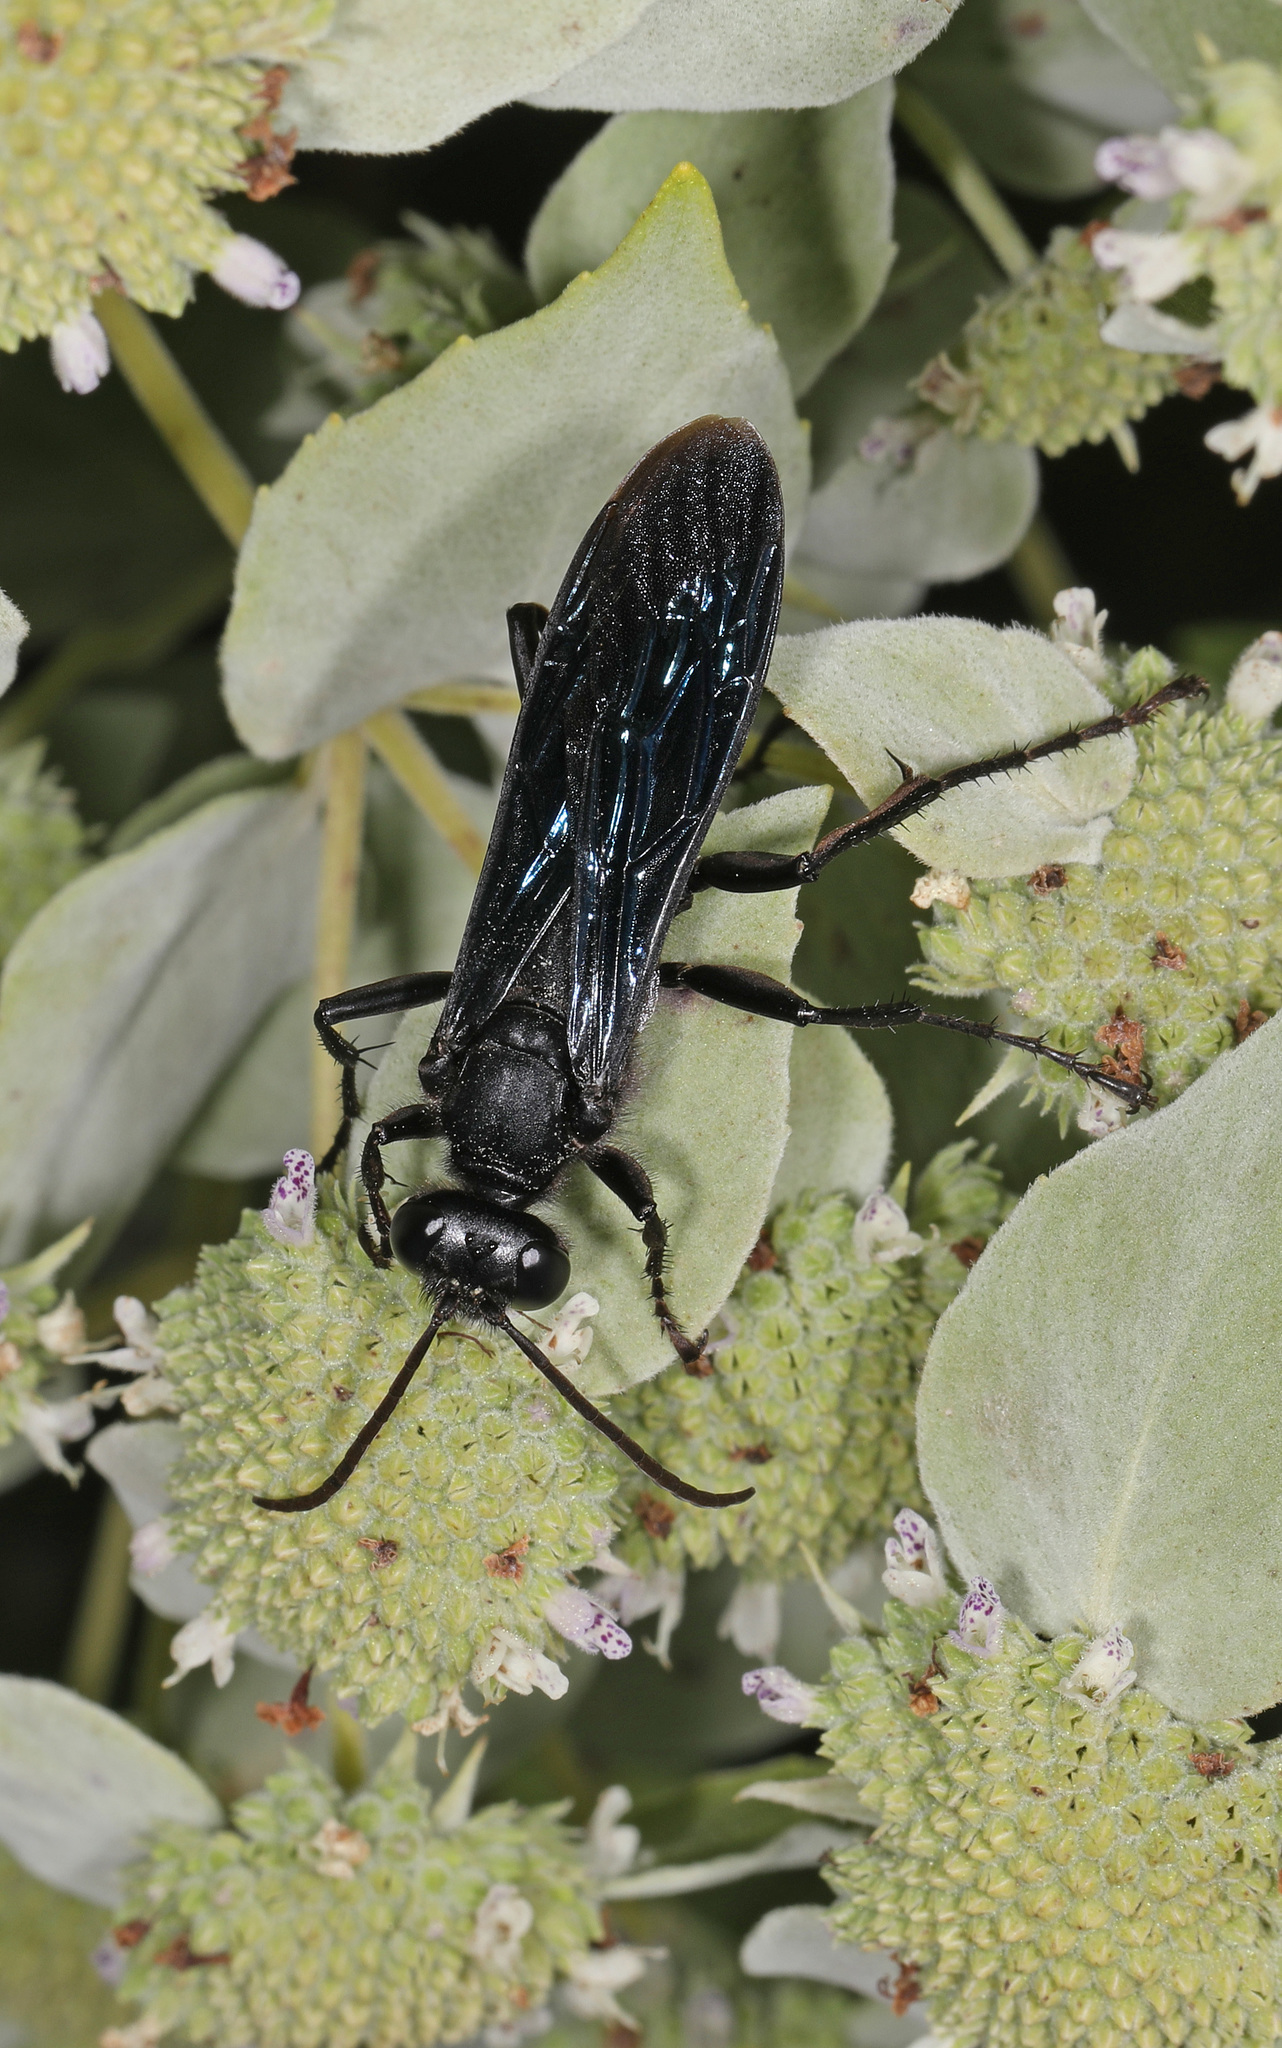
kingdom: Animalia
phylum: Arthropoda
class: Insecta
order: Hymenoptera
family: Sphecidae
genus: Sphex
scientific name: Sphex pensylvanicus
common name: Great black digger wasp
